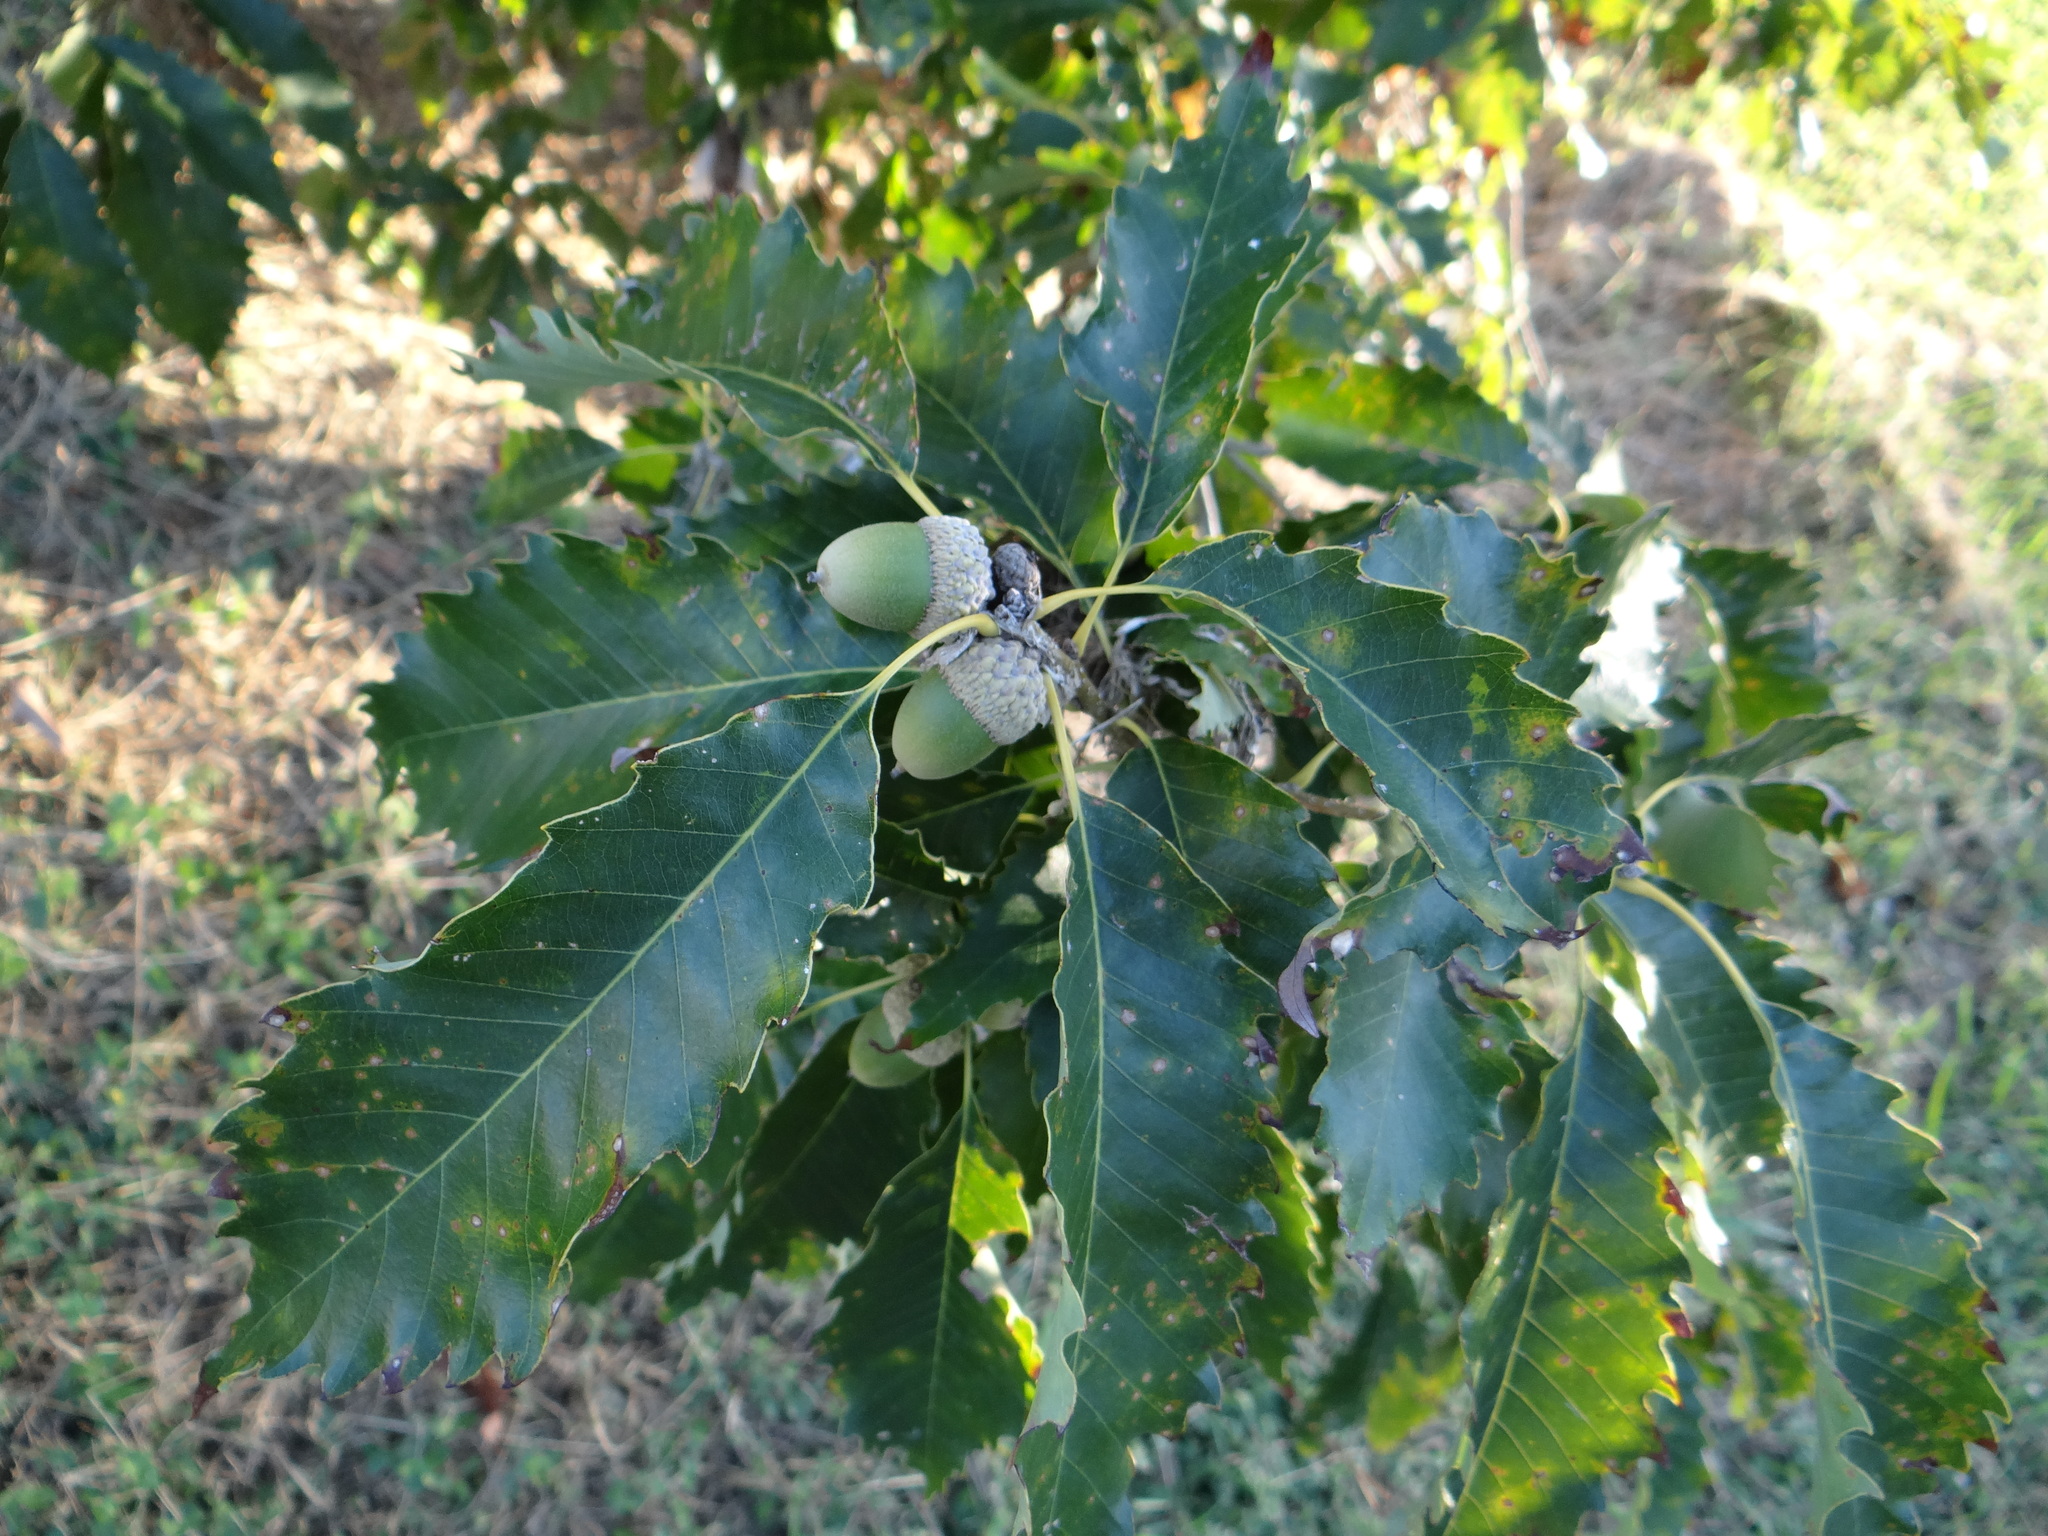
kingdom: Plantae
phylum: Tracheophyta
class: Magnoliopsida
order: Fagales
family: Fagaceae
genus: Quercus
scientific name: Quercus muehlenbergii
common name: Chinkapin oak
